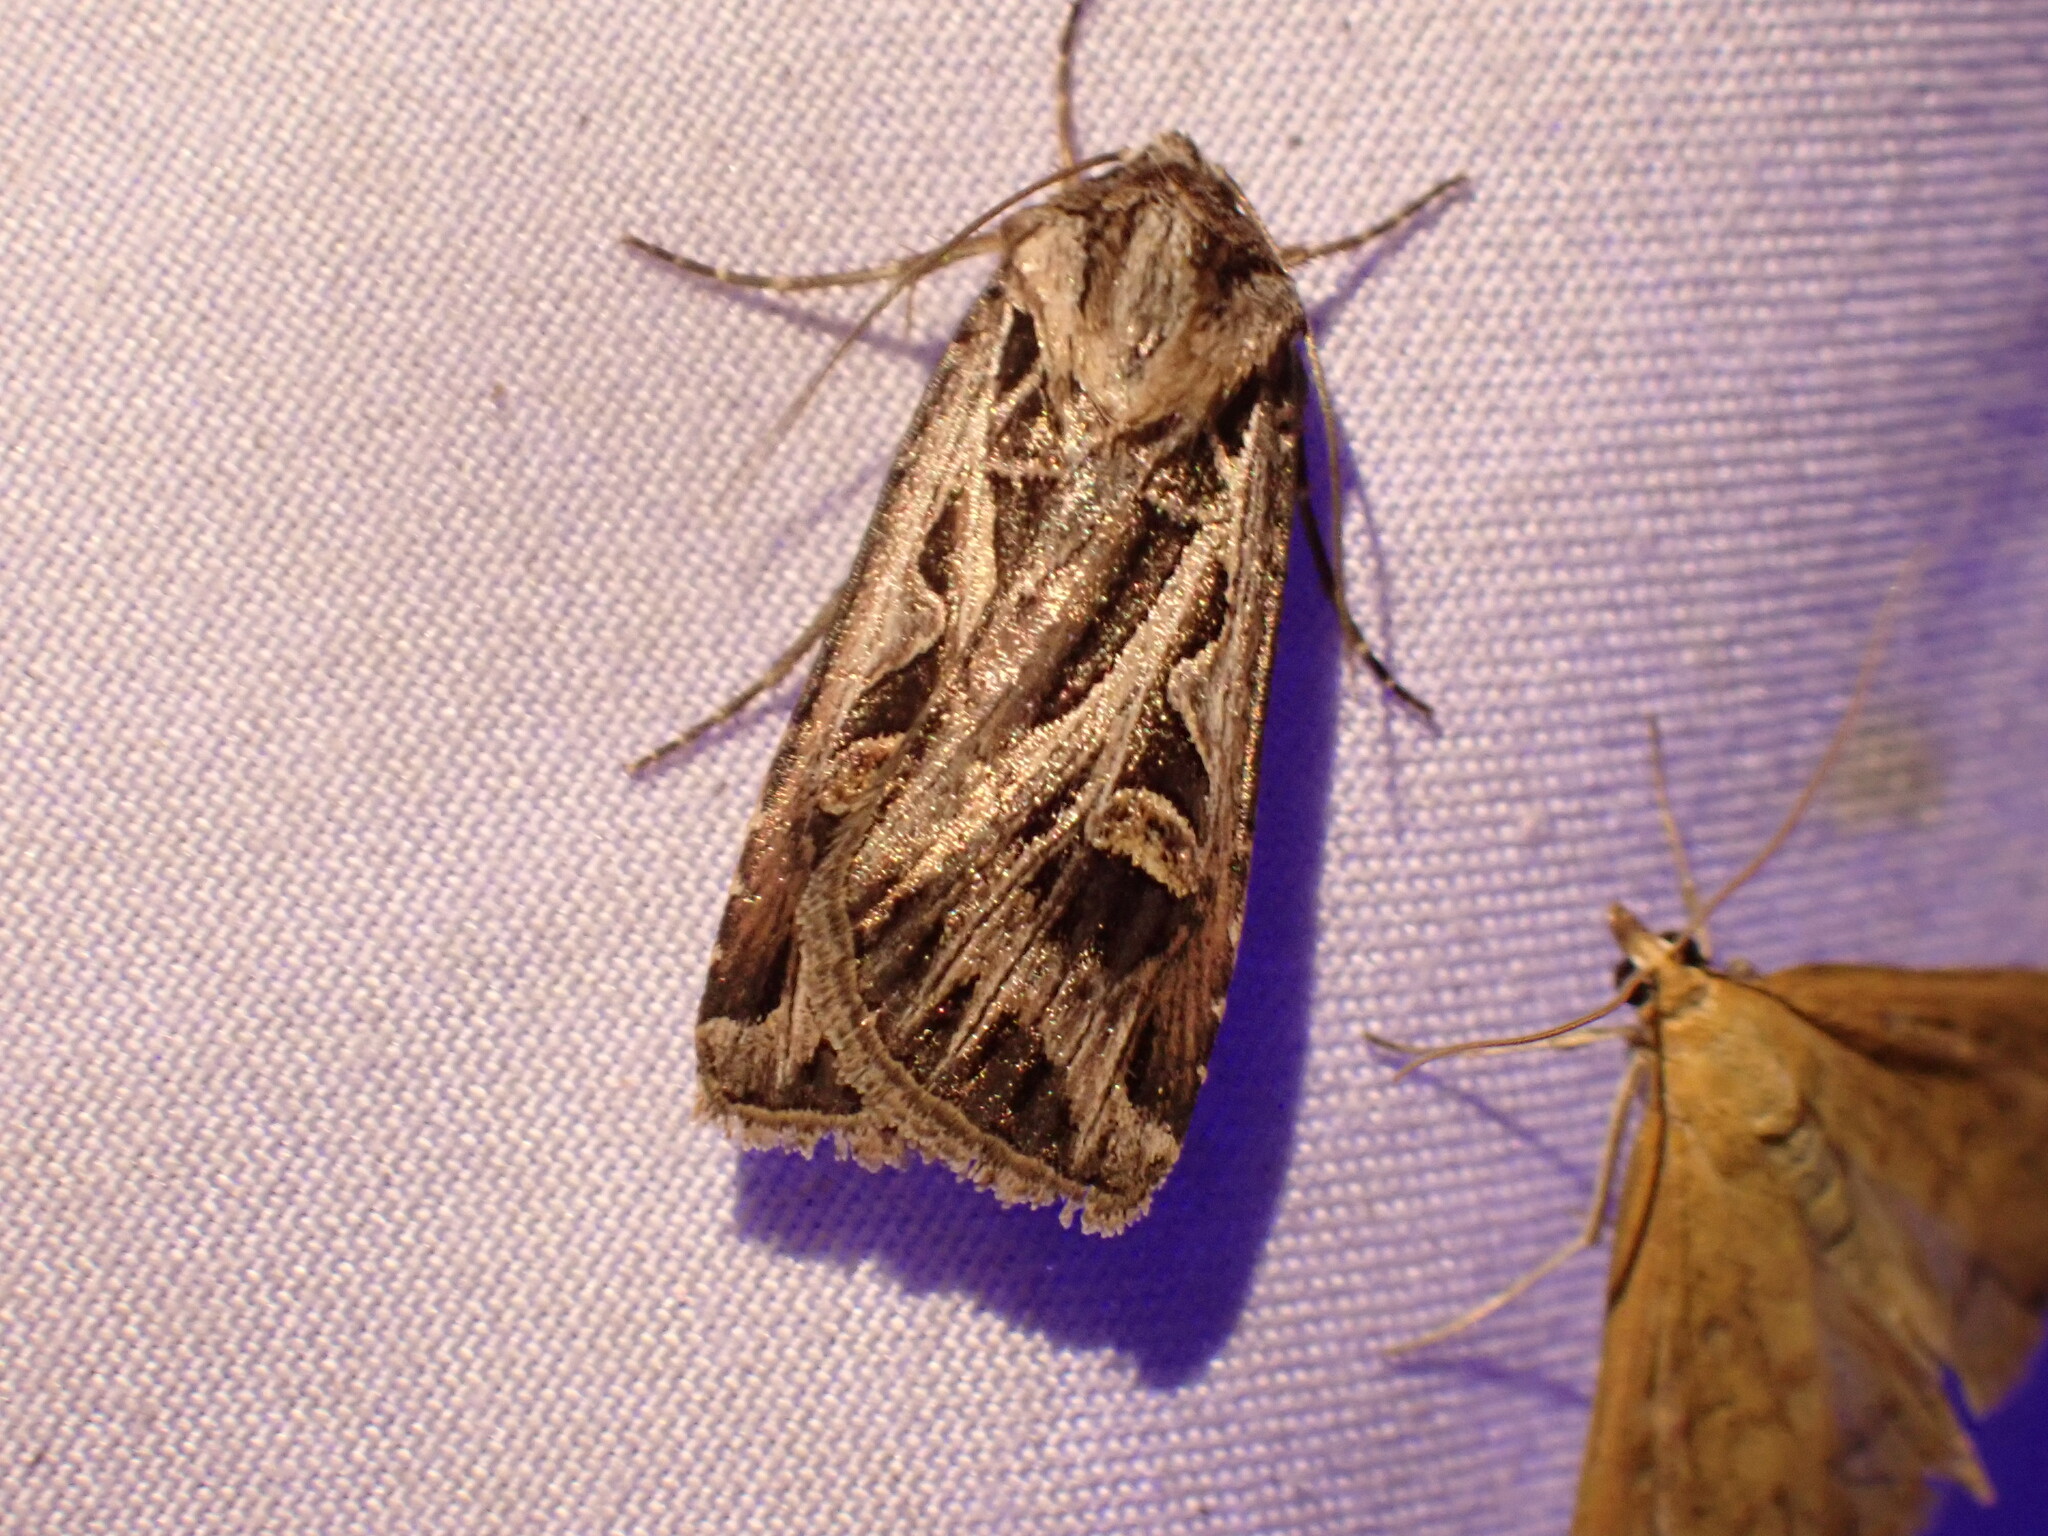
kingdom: Animalia
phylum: Arthropoda
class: Insecta
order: Lepidoptera
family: Noctuidae
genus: Feltia
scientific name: Feltia jaculifera
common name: Dingy cutworm moth
